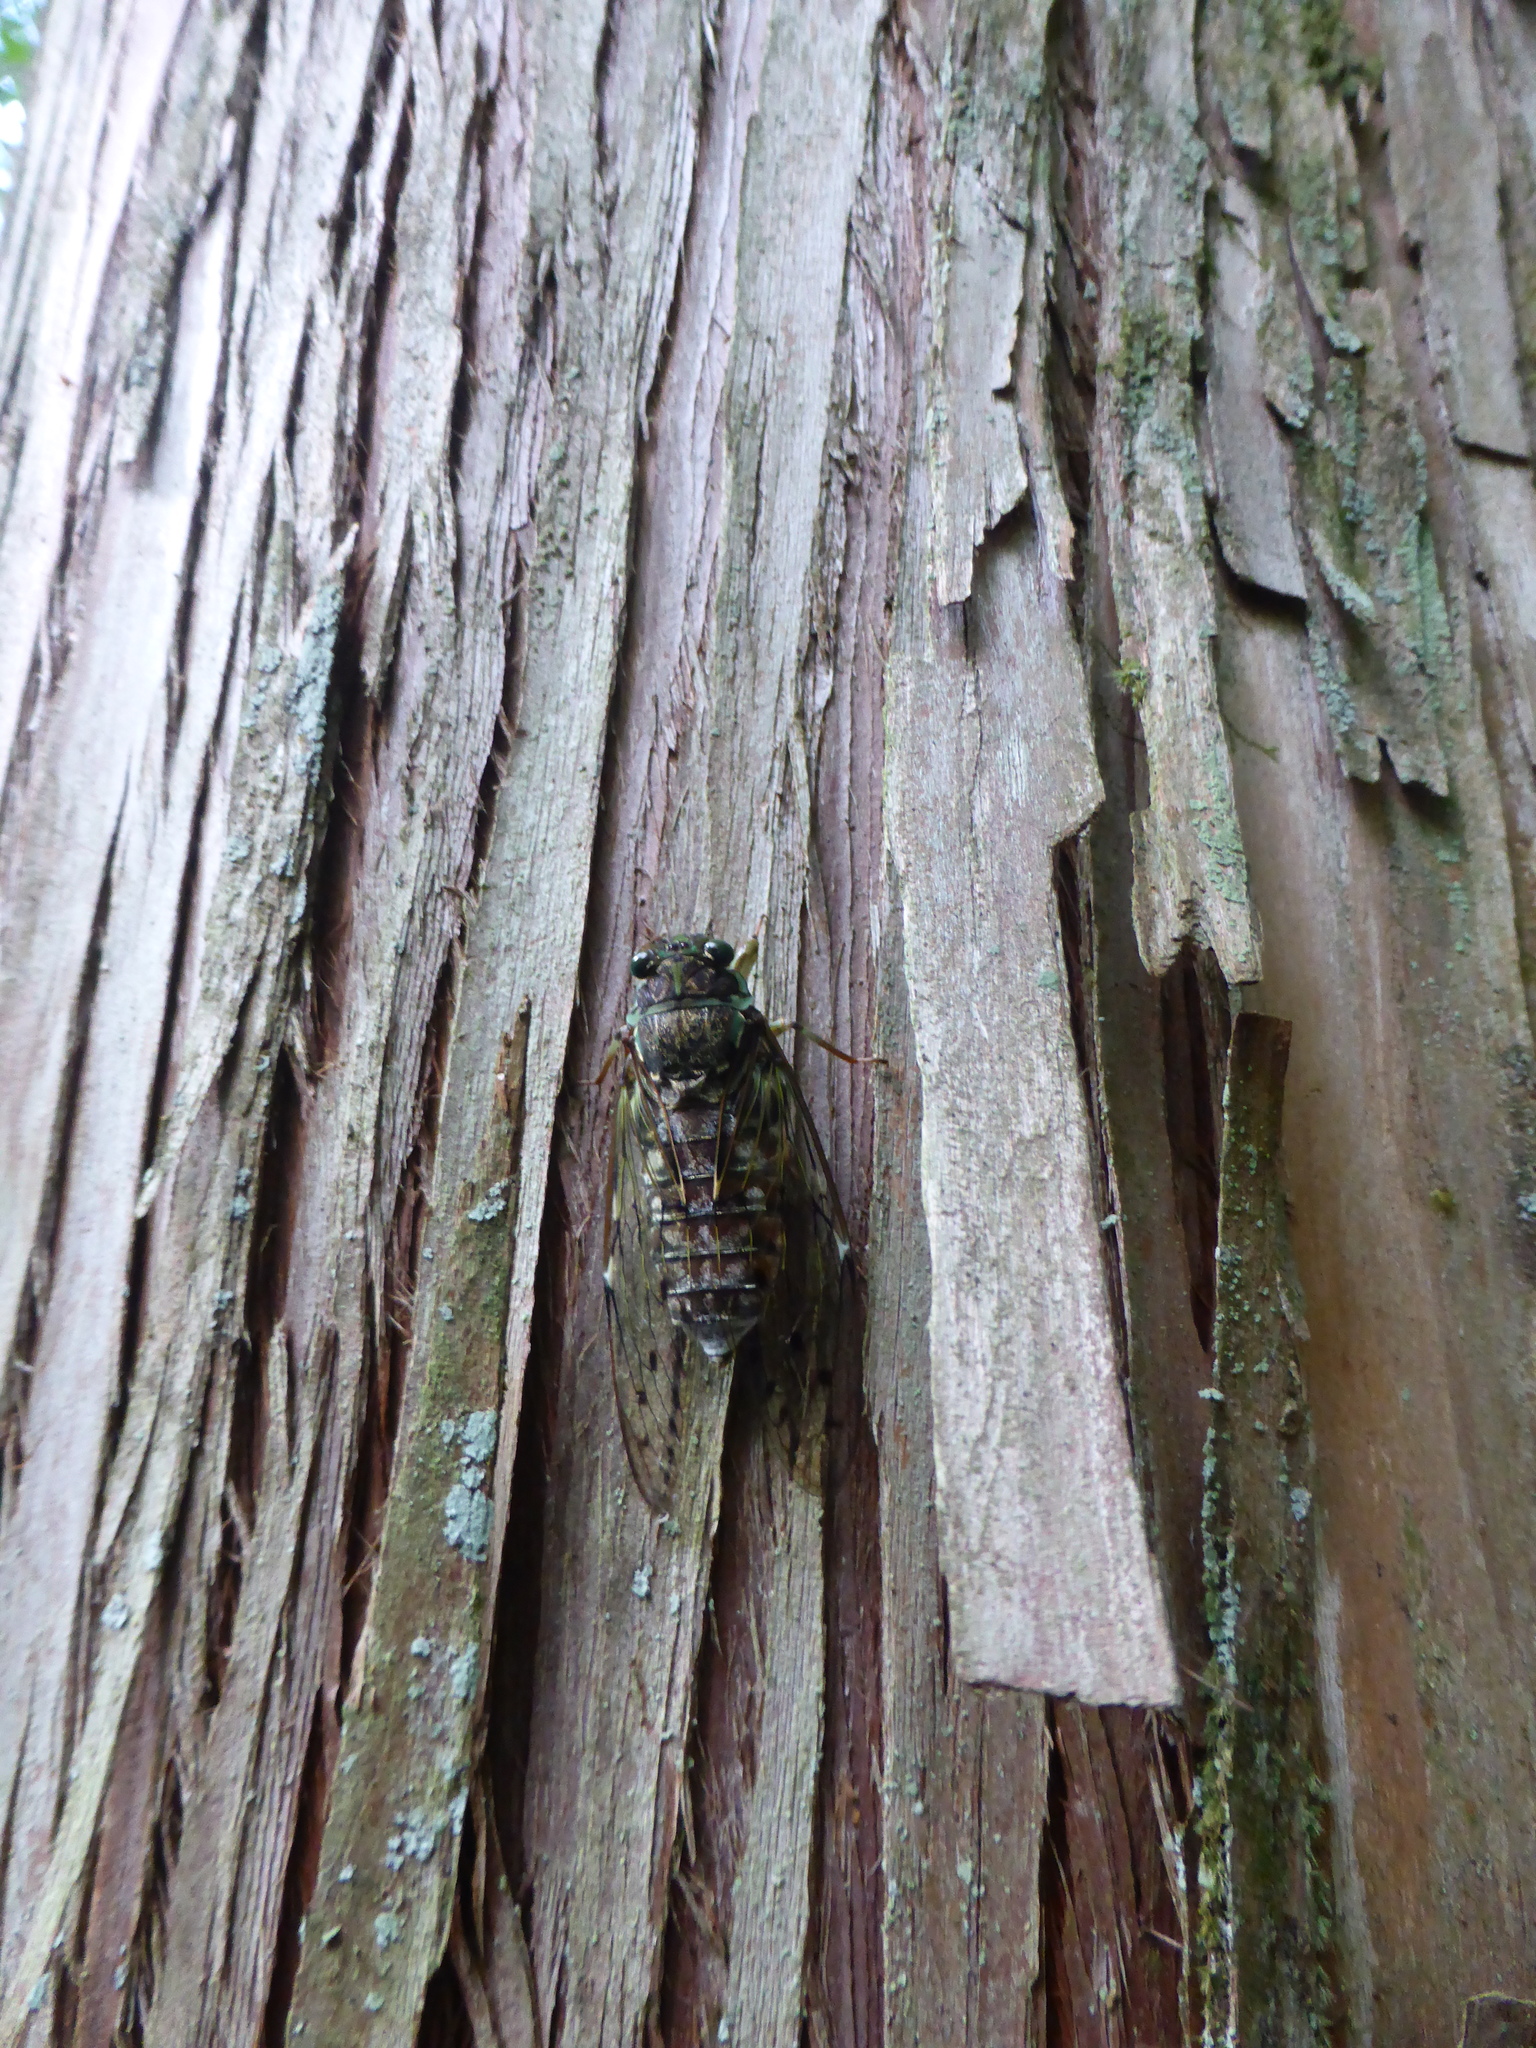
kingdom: Animalia
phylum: Arthropoda
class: Insecta
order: Hemiptera
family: Cicadidae
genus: Tanna
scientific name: Tanna japonensis
